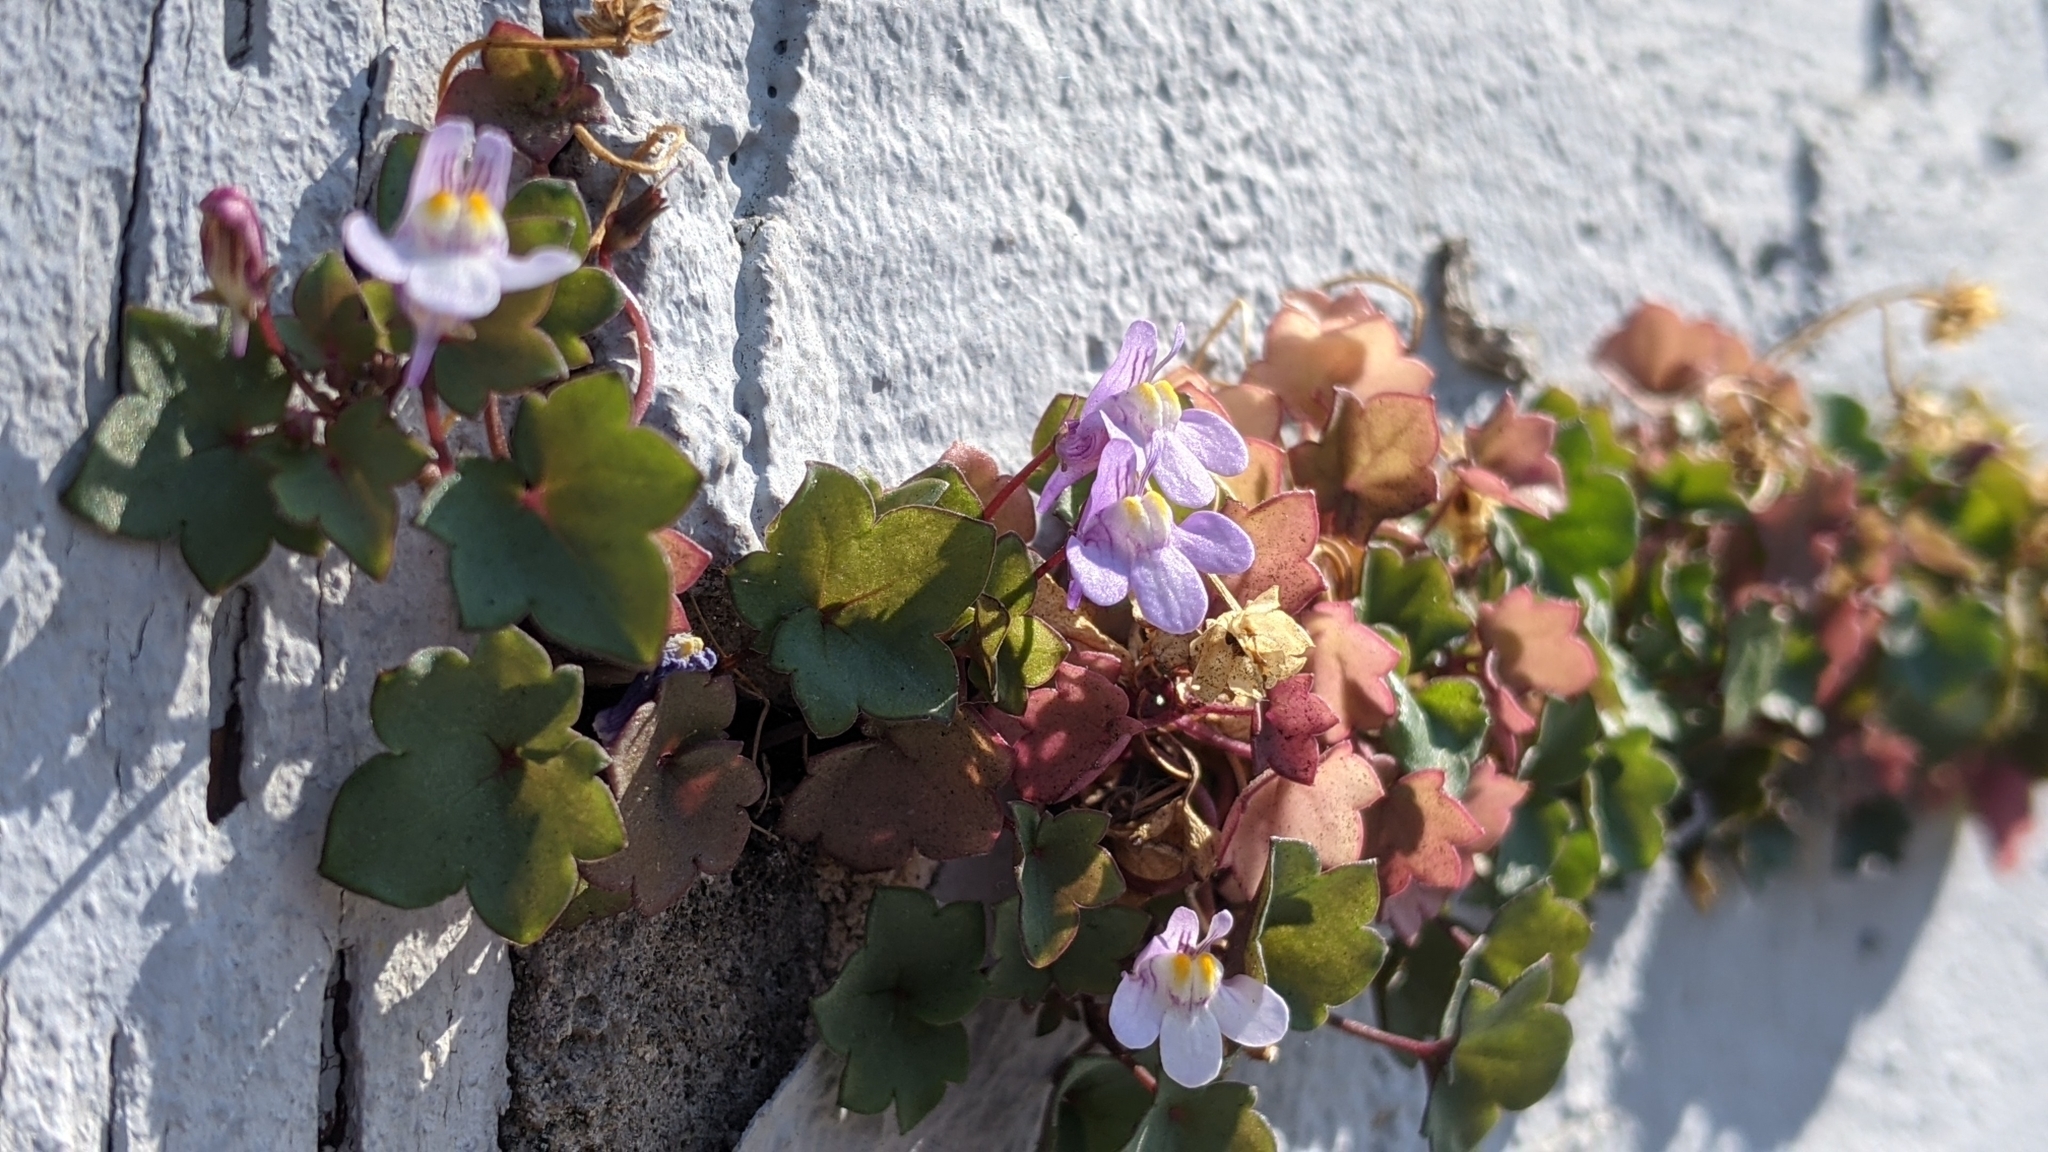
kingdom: Plantae
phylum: Tracheophyta
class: Magnoliopsida
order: Lamiales
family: Plantaginaceae
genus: Cymbalaria
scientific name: Cymbalaria muralis
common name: Ivy-leaved toadflax
